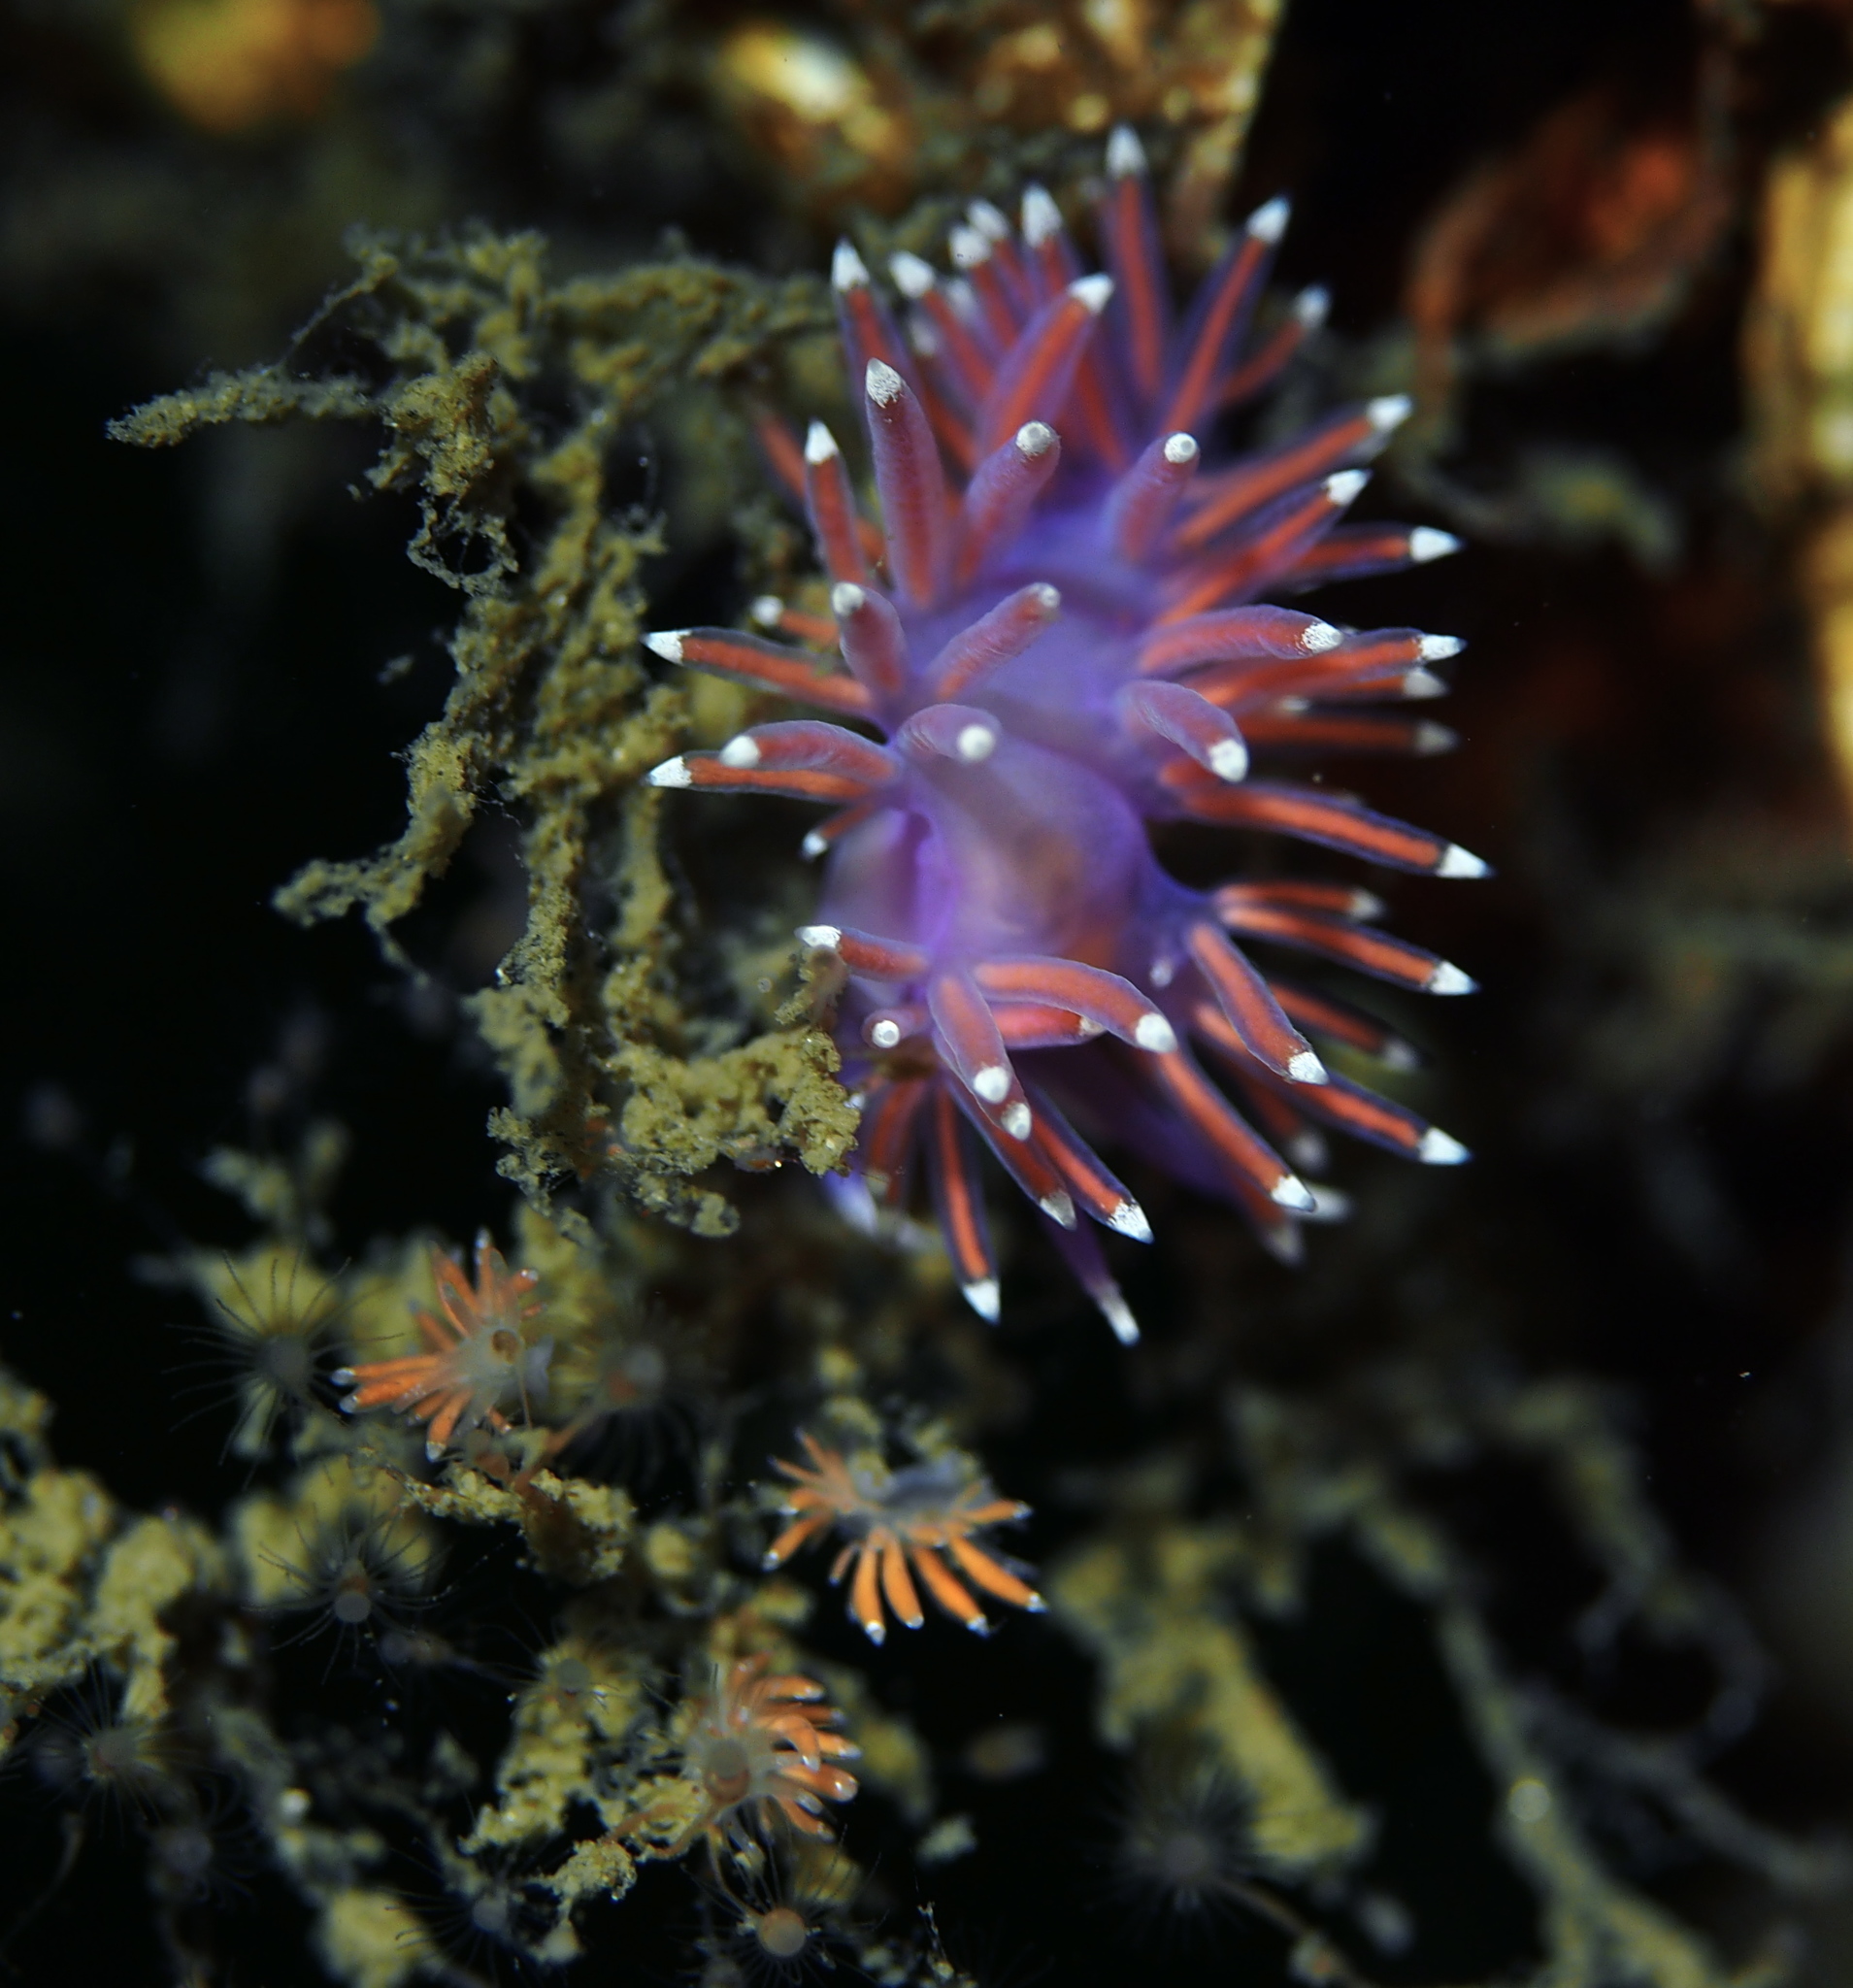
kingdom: Animalia
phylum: Mollusca
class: Gastropoda
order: Nudibranchia
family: Flabellinidae
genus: Edmundsella
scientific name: Edmundsella pedata
